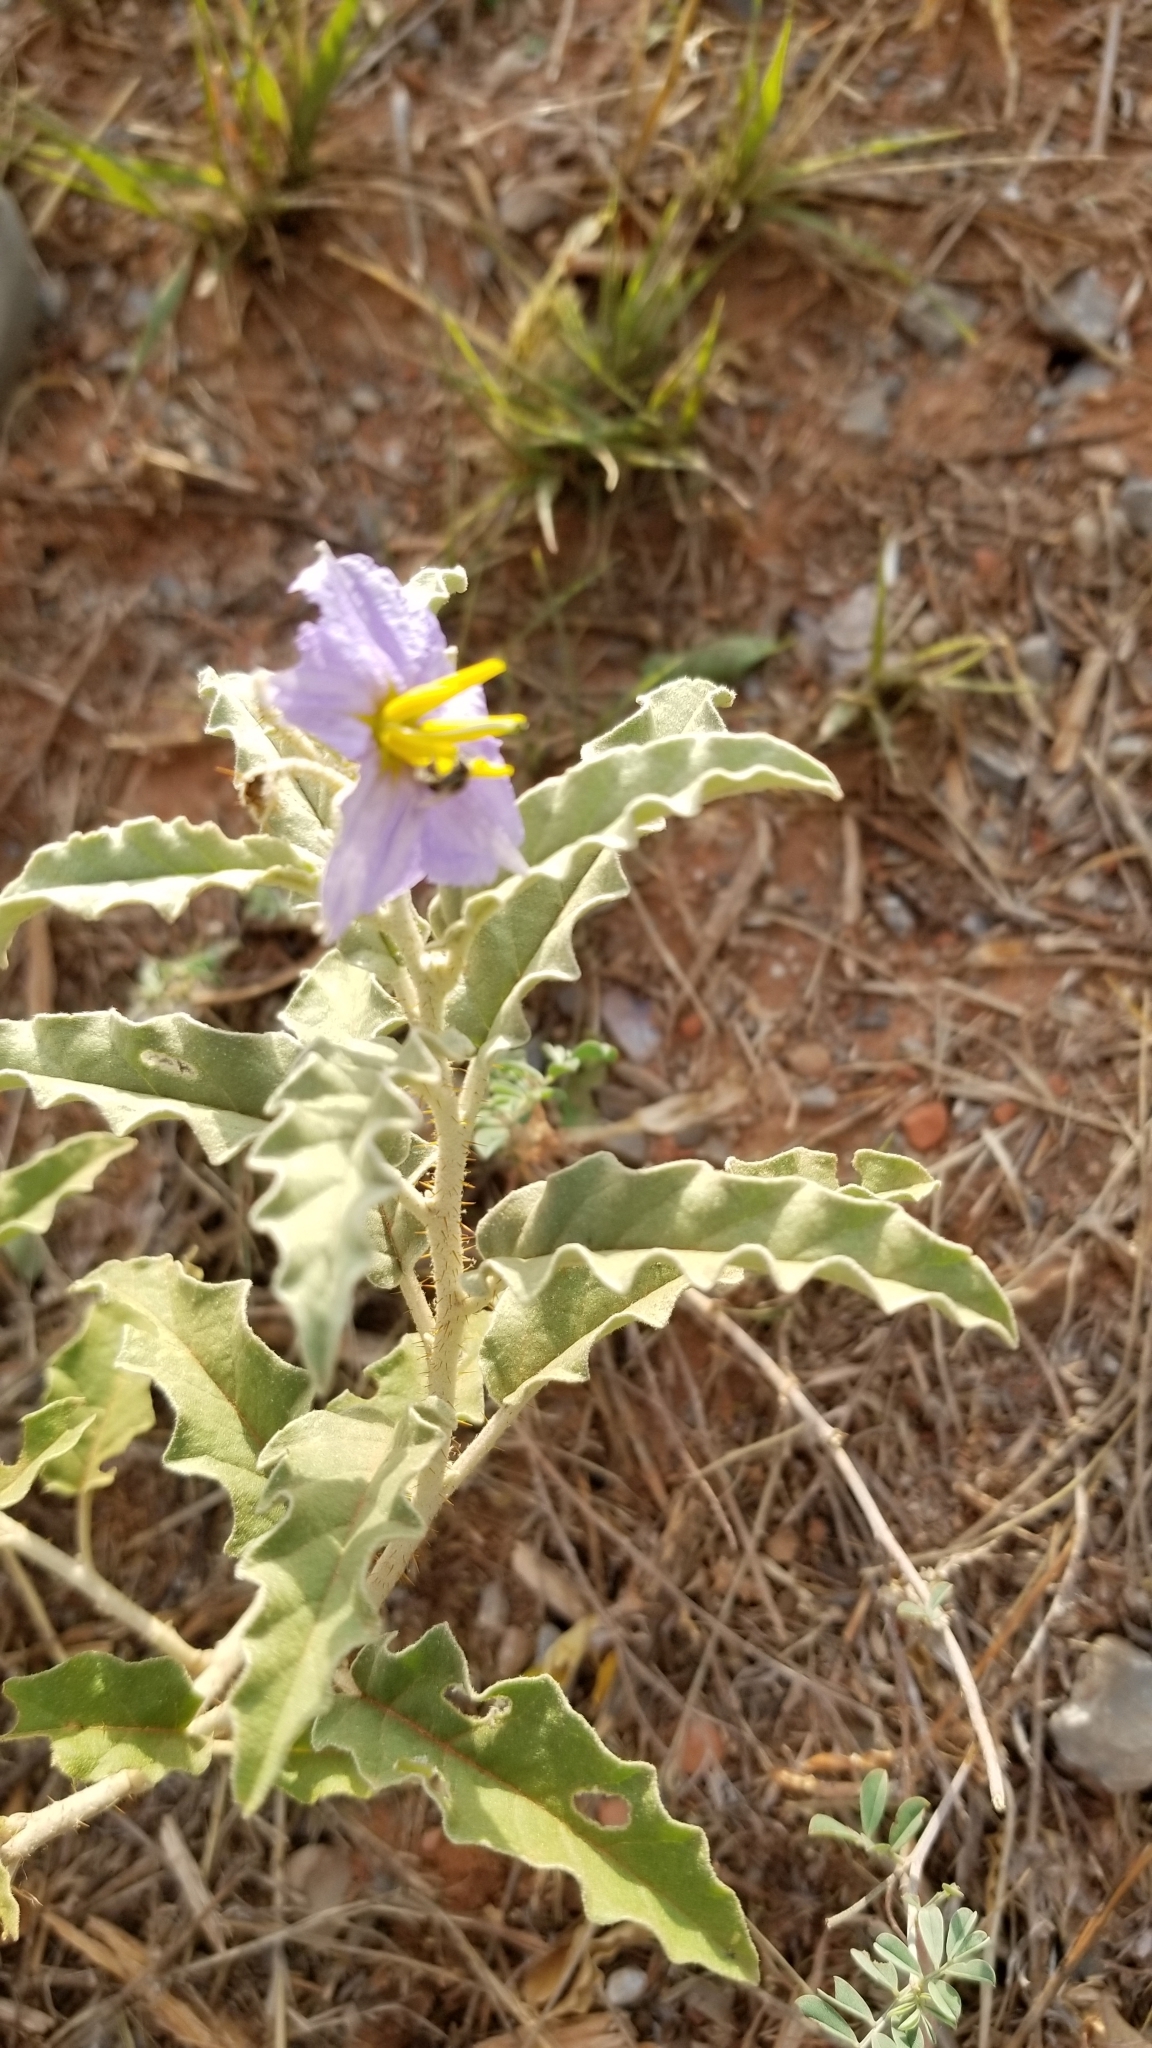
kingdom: Plantae
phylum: Tracheophyta
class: Magnoliopsida
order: Solanales
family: Solanaceae
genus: Solanum
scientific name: Solanum elaeagnifolium
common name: Silverleaf nightshade
